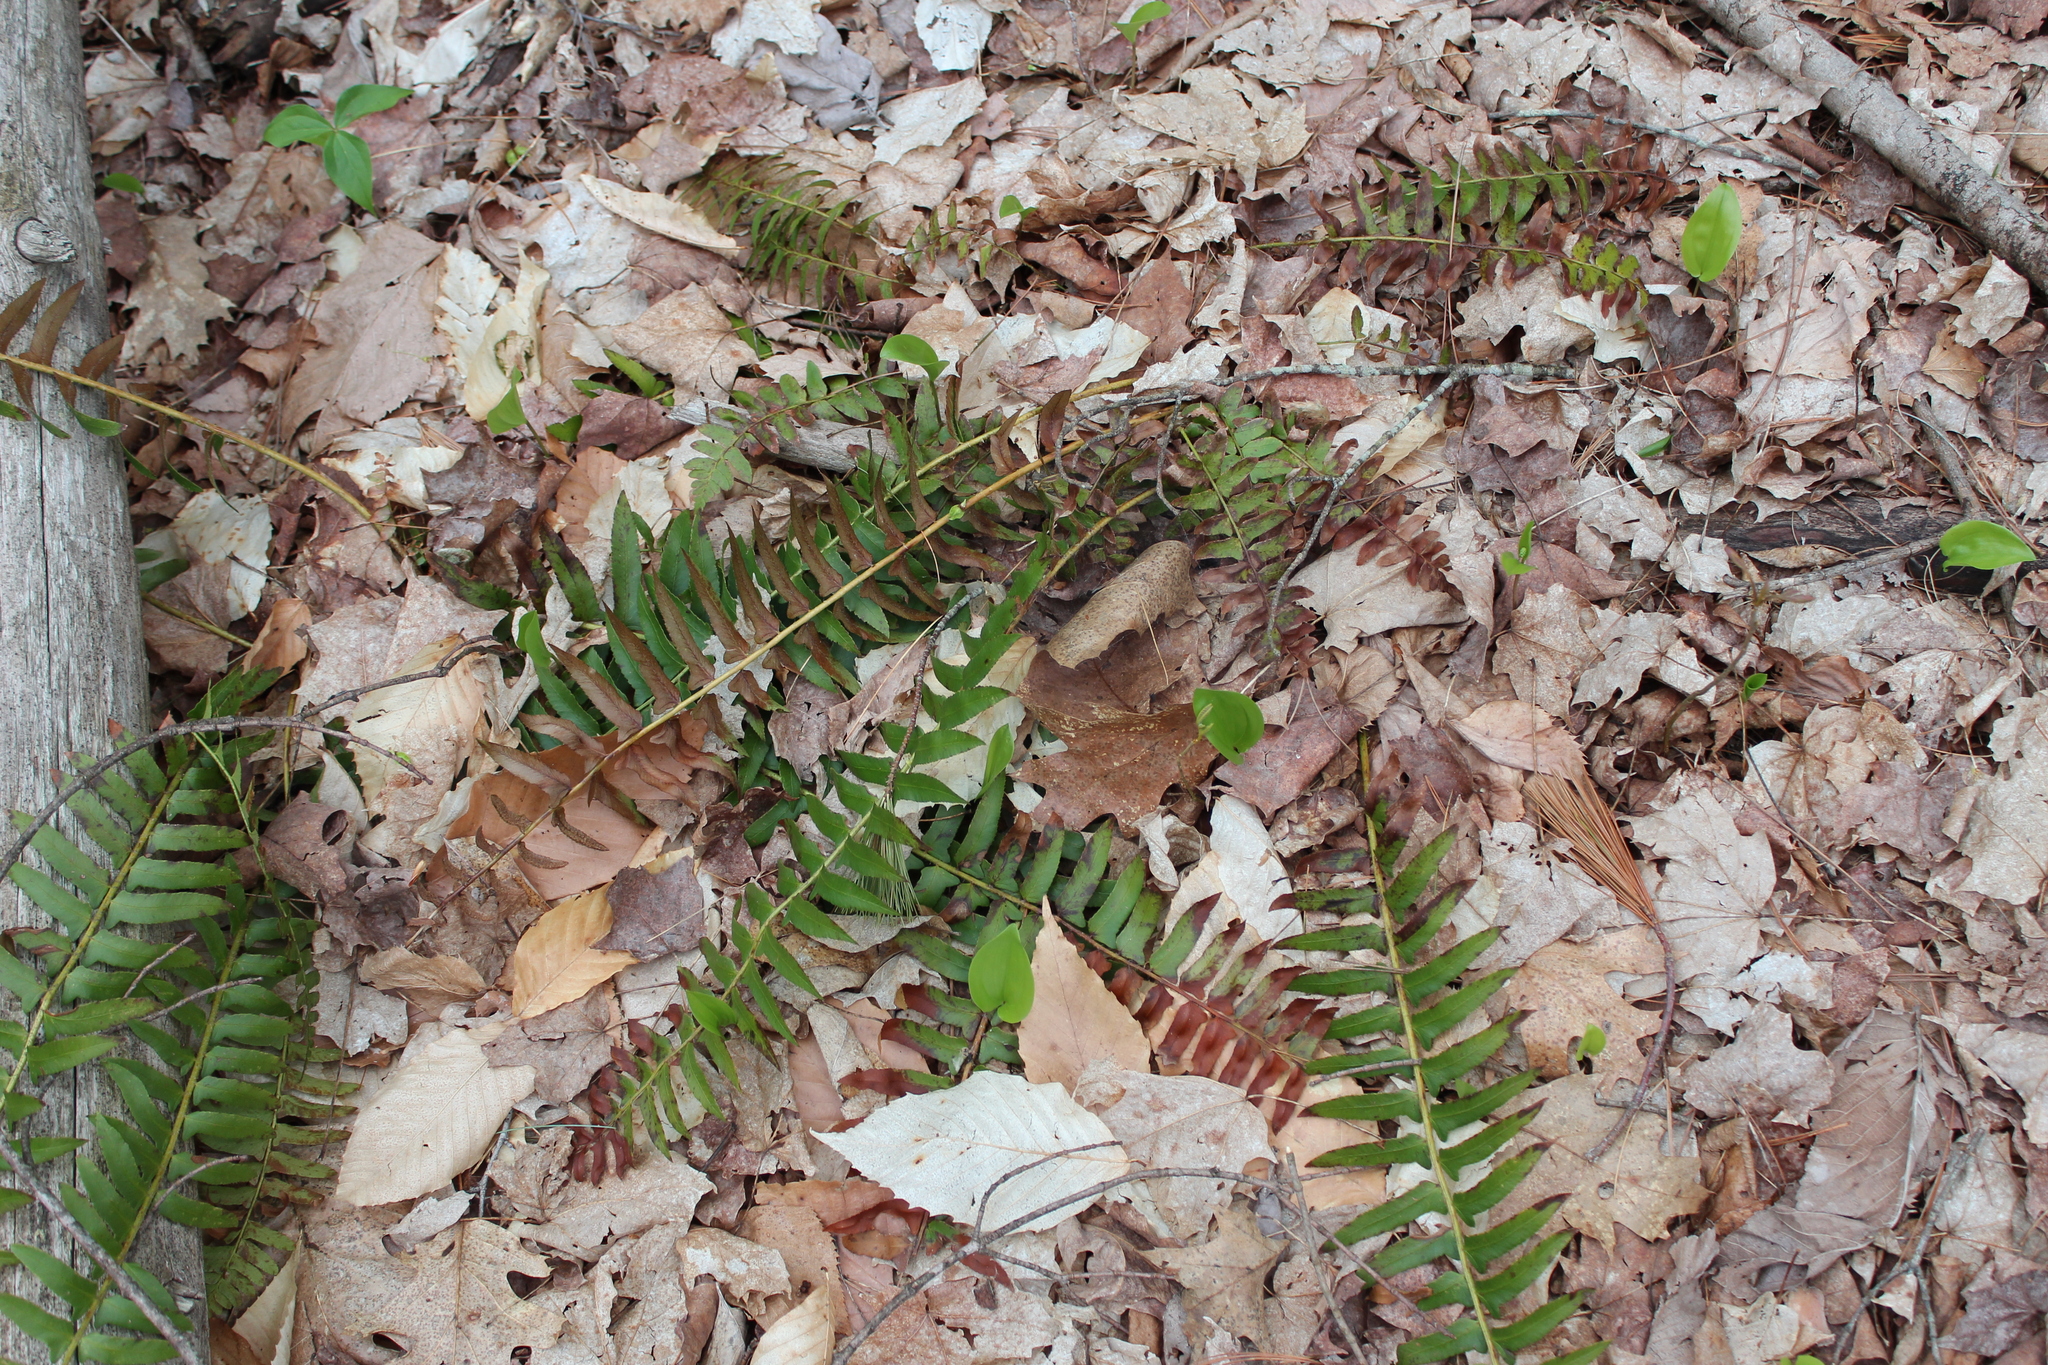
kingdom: Plantae
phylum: Tracheophyta
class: Polypodiopsida
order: Polypodiales
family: Dryopteridaceae
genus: Polystichum
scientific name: Polystichum acrostichoides
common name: Christmas fern
